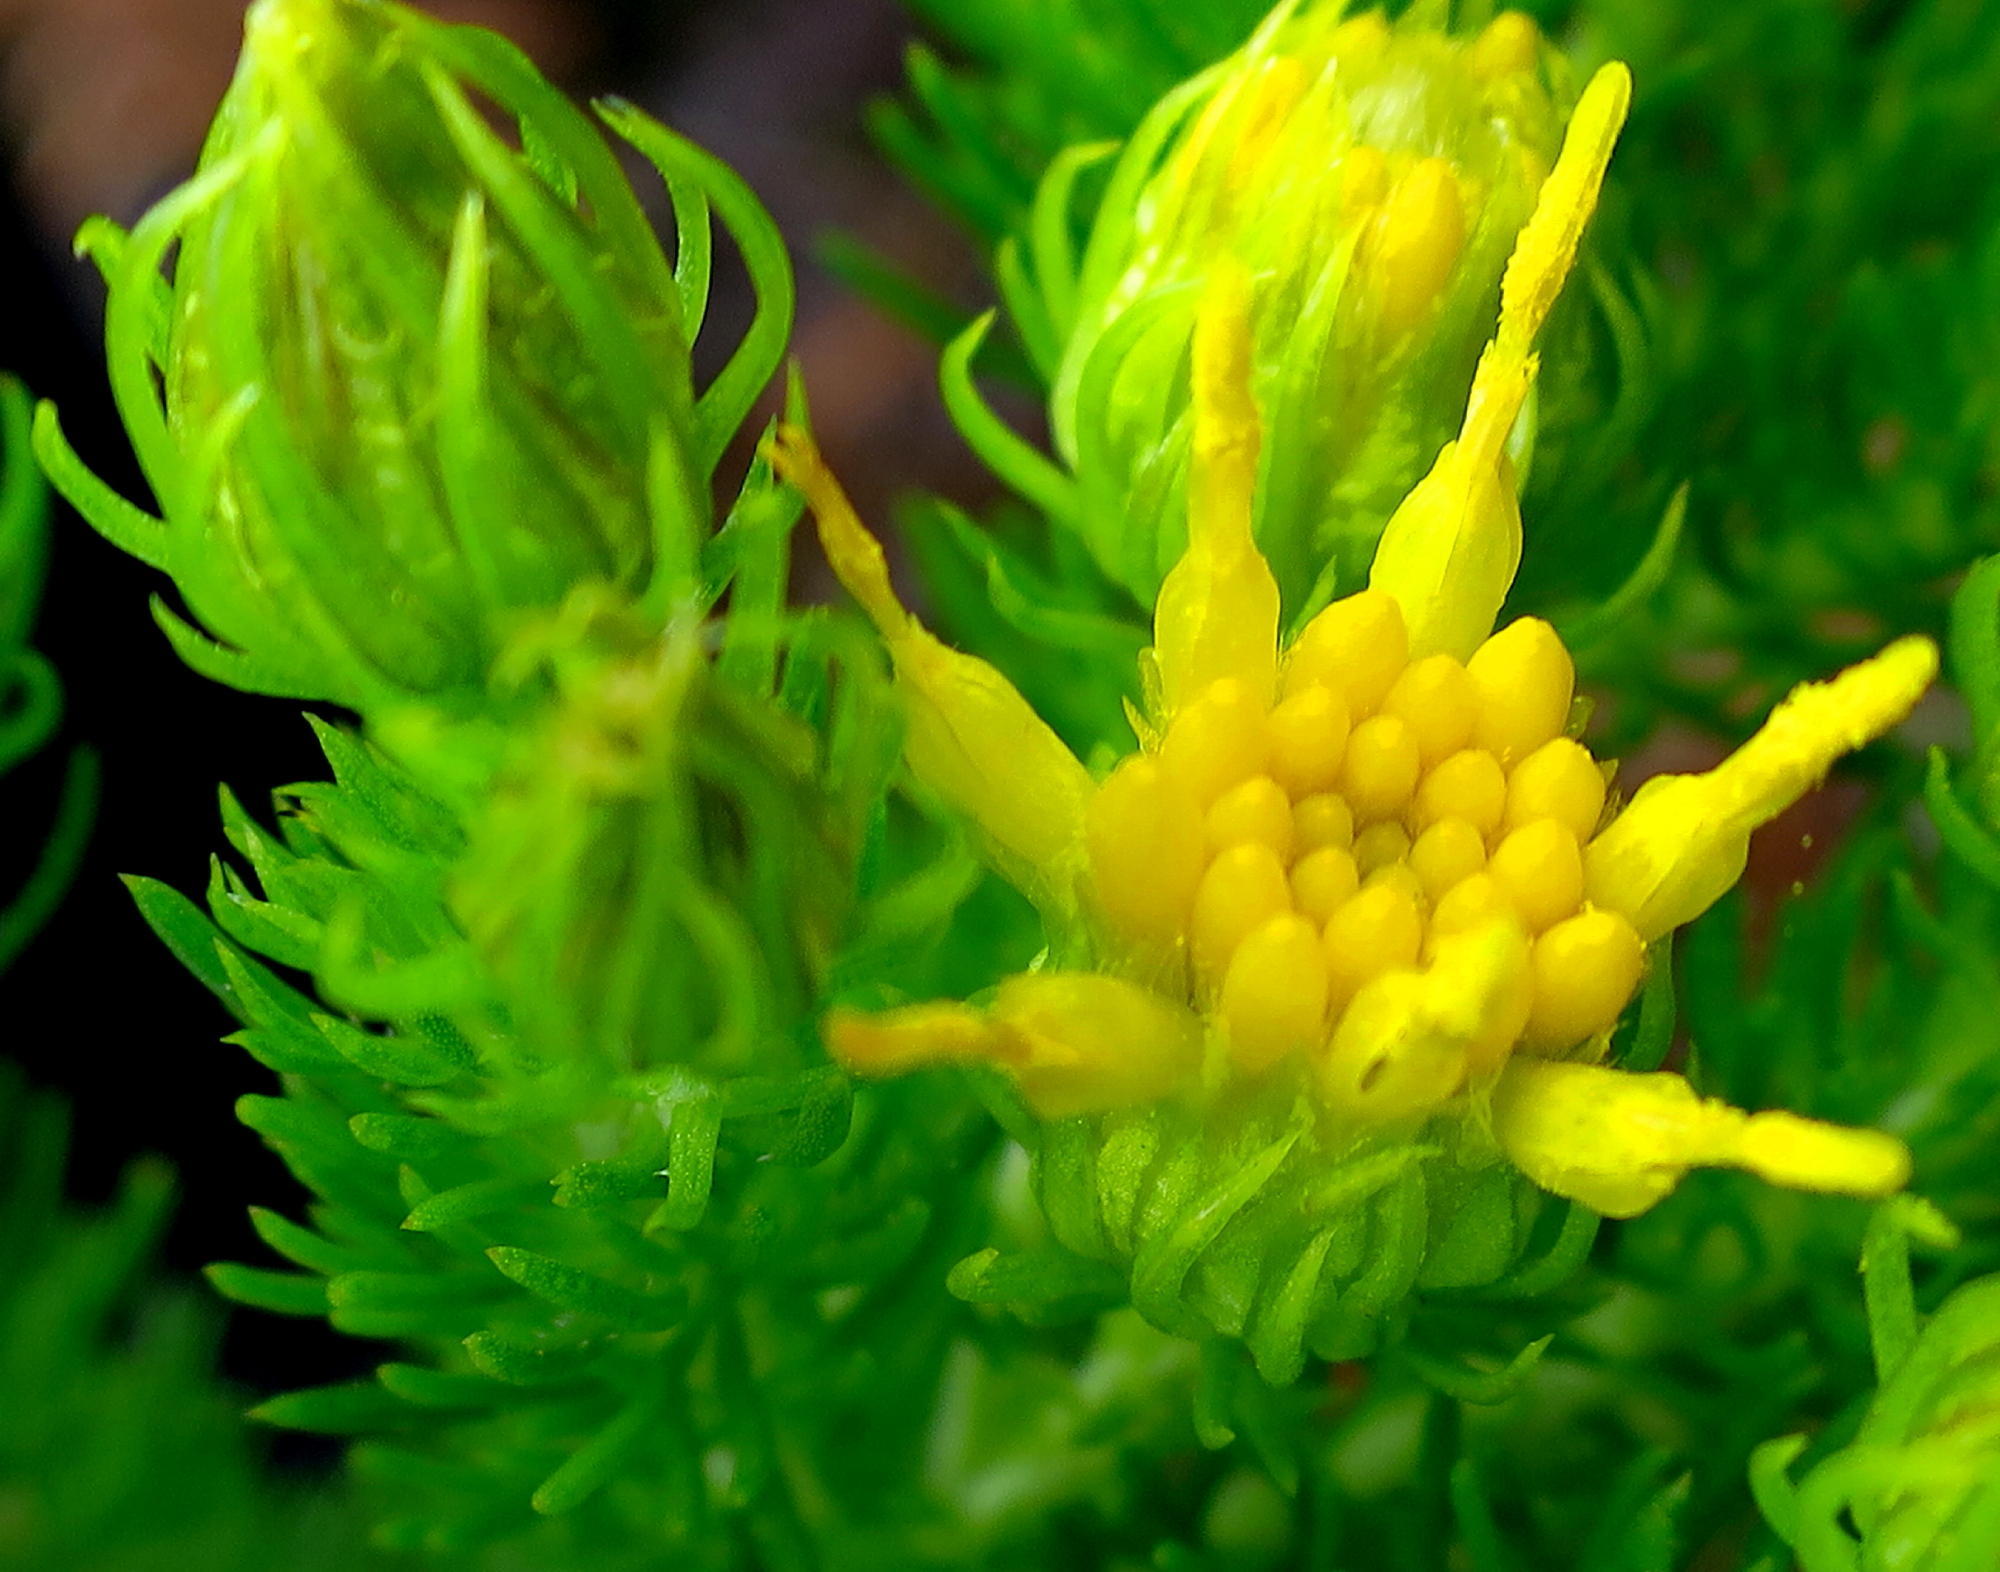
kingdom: Plantae
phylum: Tracheophyta
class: Magnoliopsida
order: Asterales
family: Asteraceae
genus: Pteronia
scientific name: Pteronia camphorata
